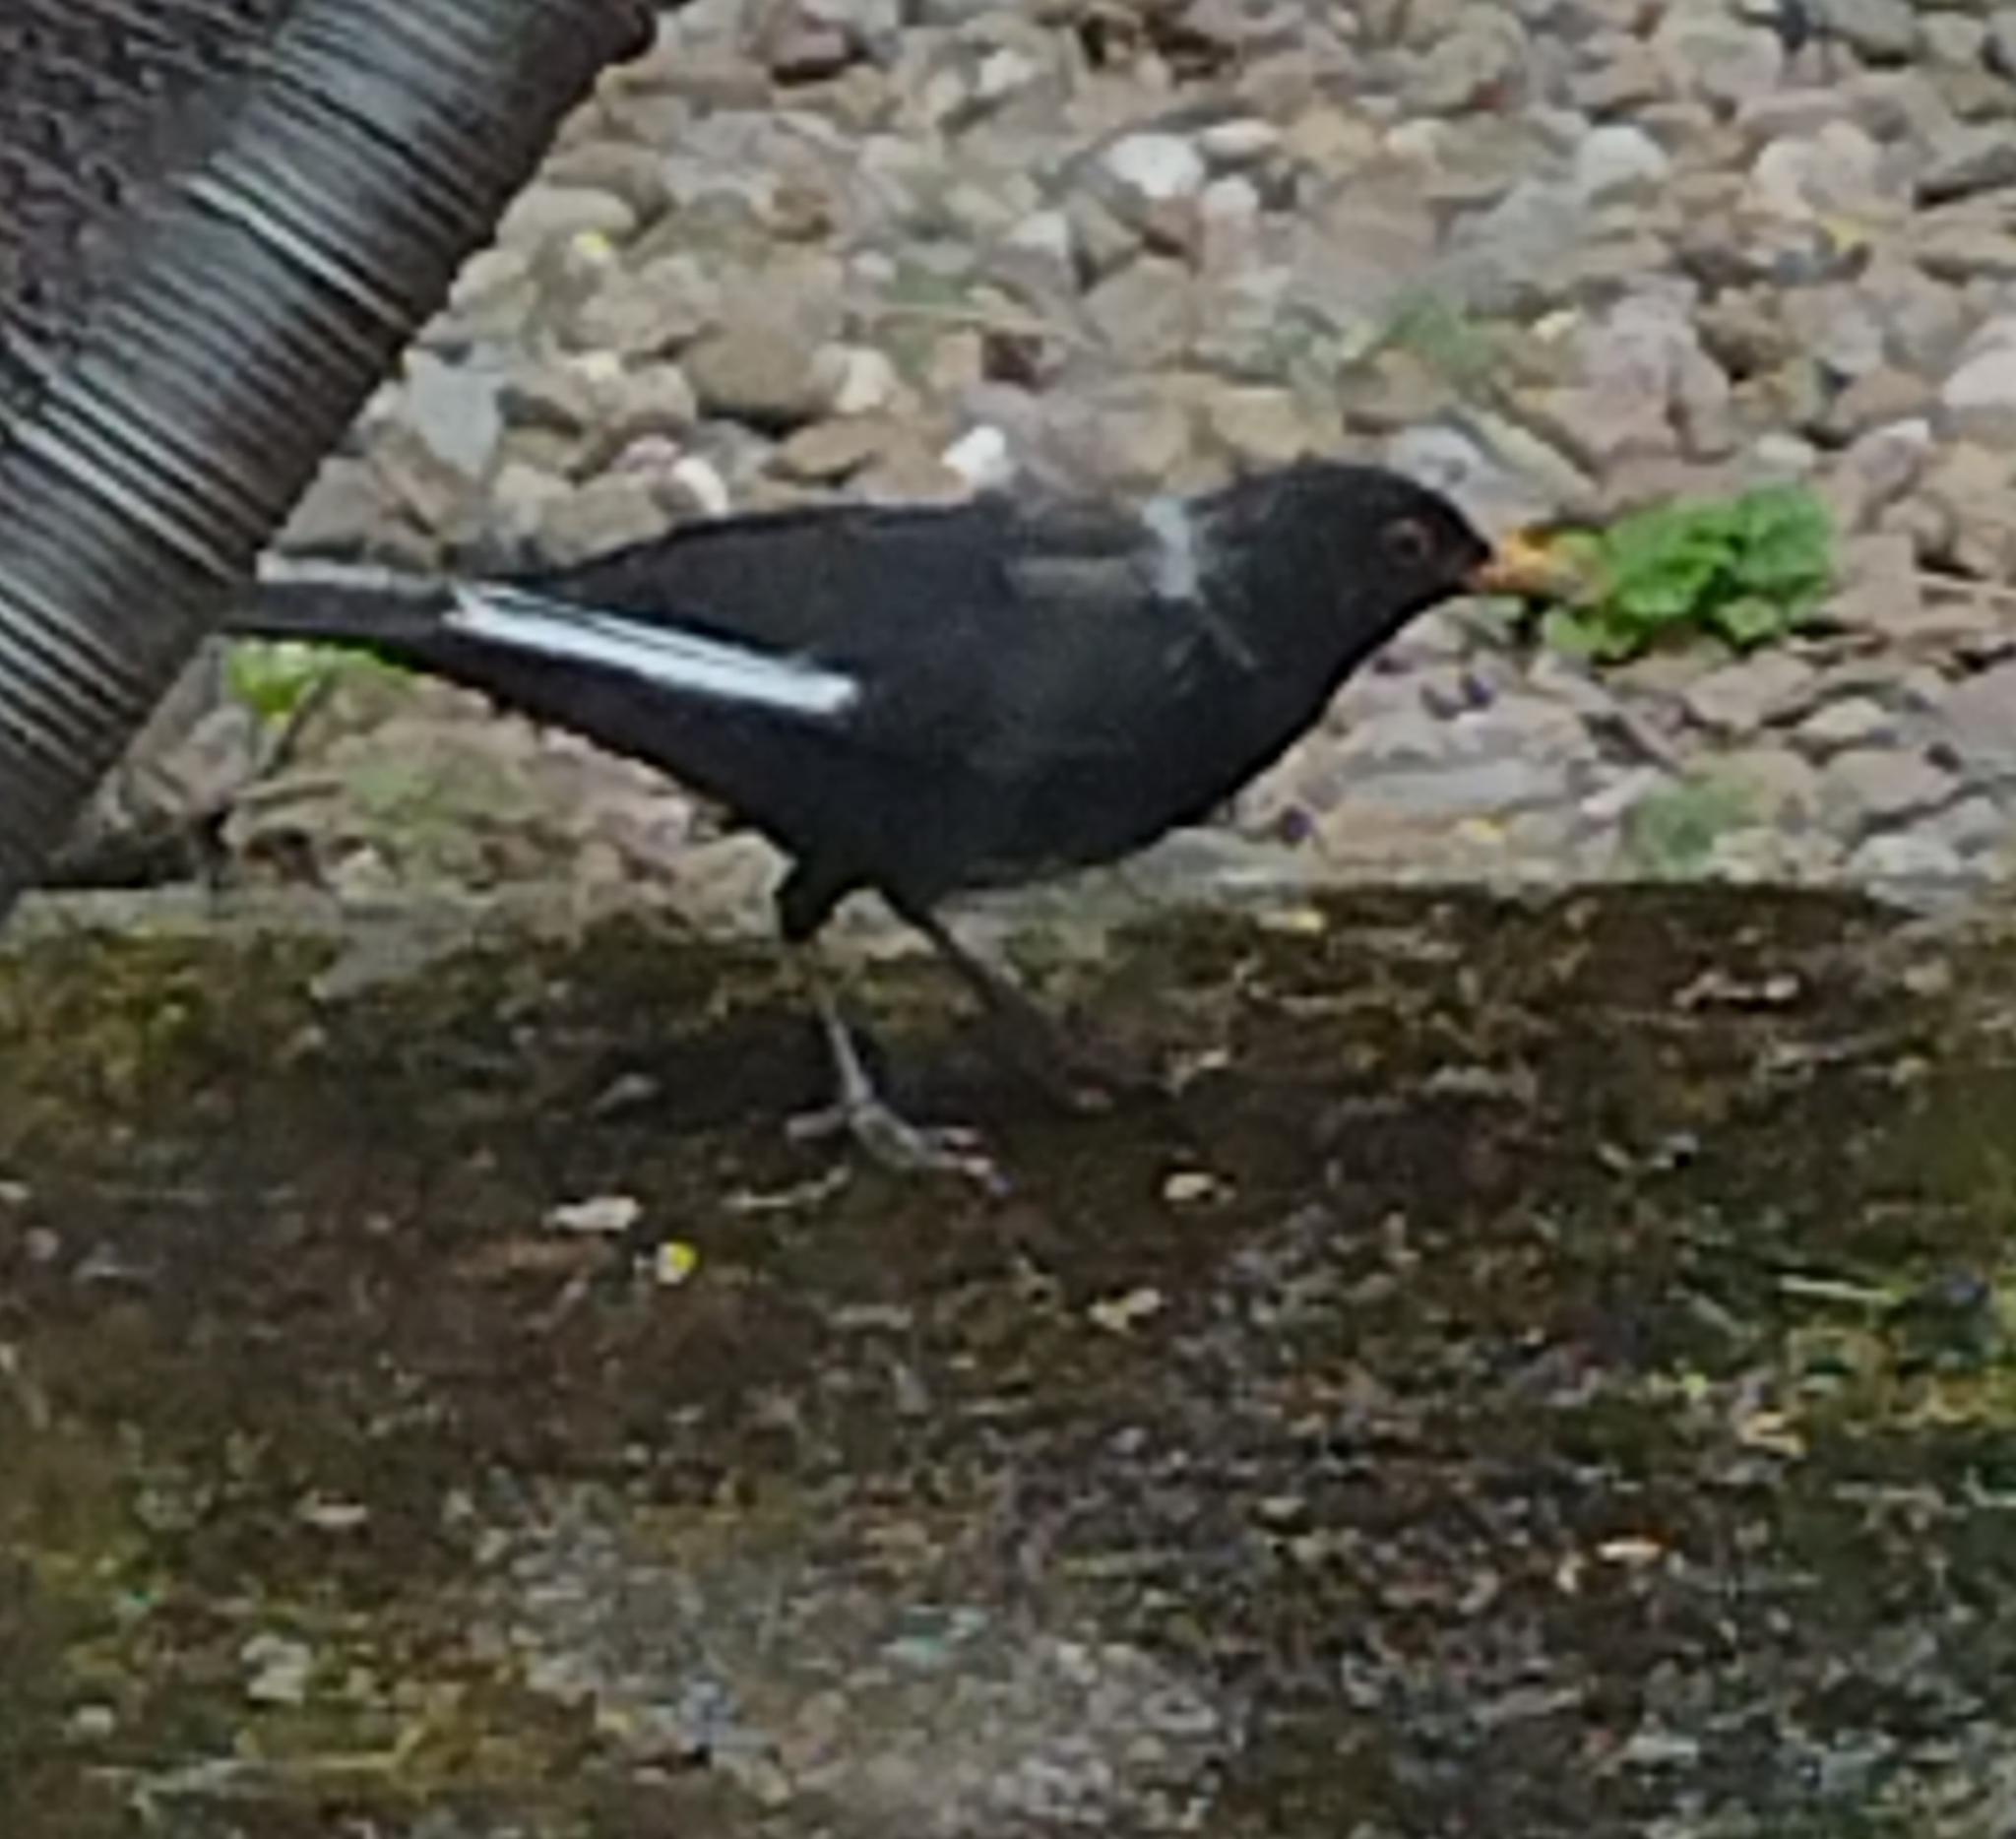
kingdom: Animalia
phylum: Chordata
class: Aves
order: Passeriformes
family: Turdidae
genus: Turdus
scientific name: Turdus merula
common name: Common blackbird
